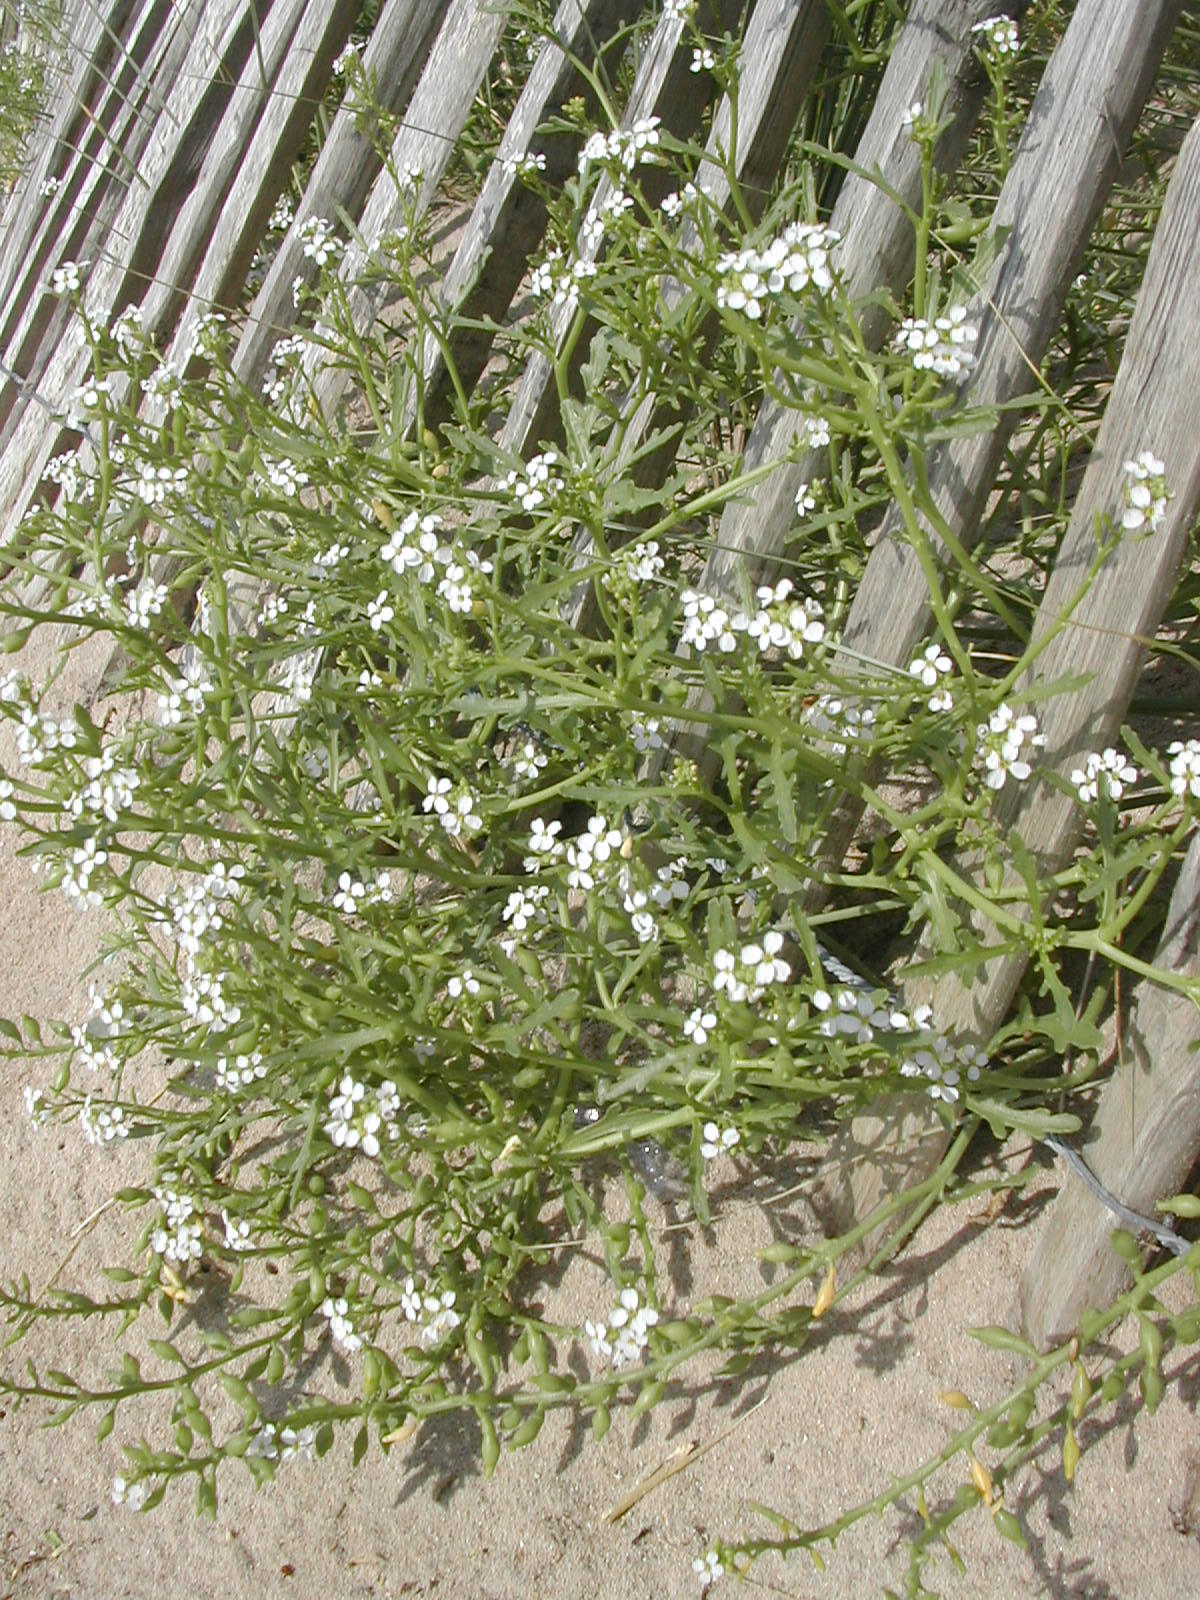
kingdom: Plantae
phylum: Tracheophyta
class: Magnoliopsida
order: Brassicales
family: Brassicaceae
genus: Cakile
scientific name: Cakile maritima
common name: Sea rocket
